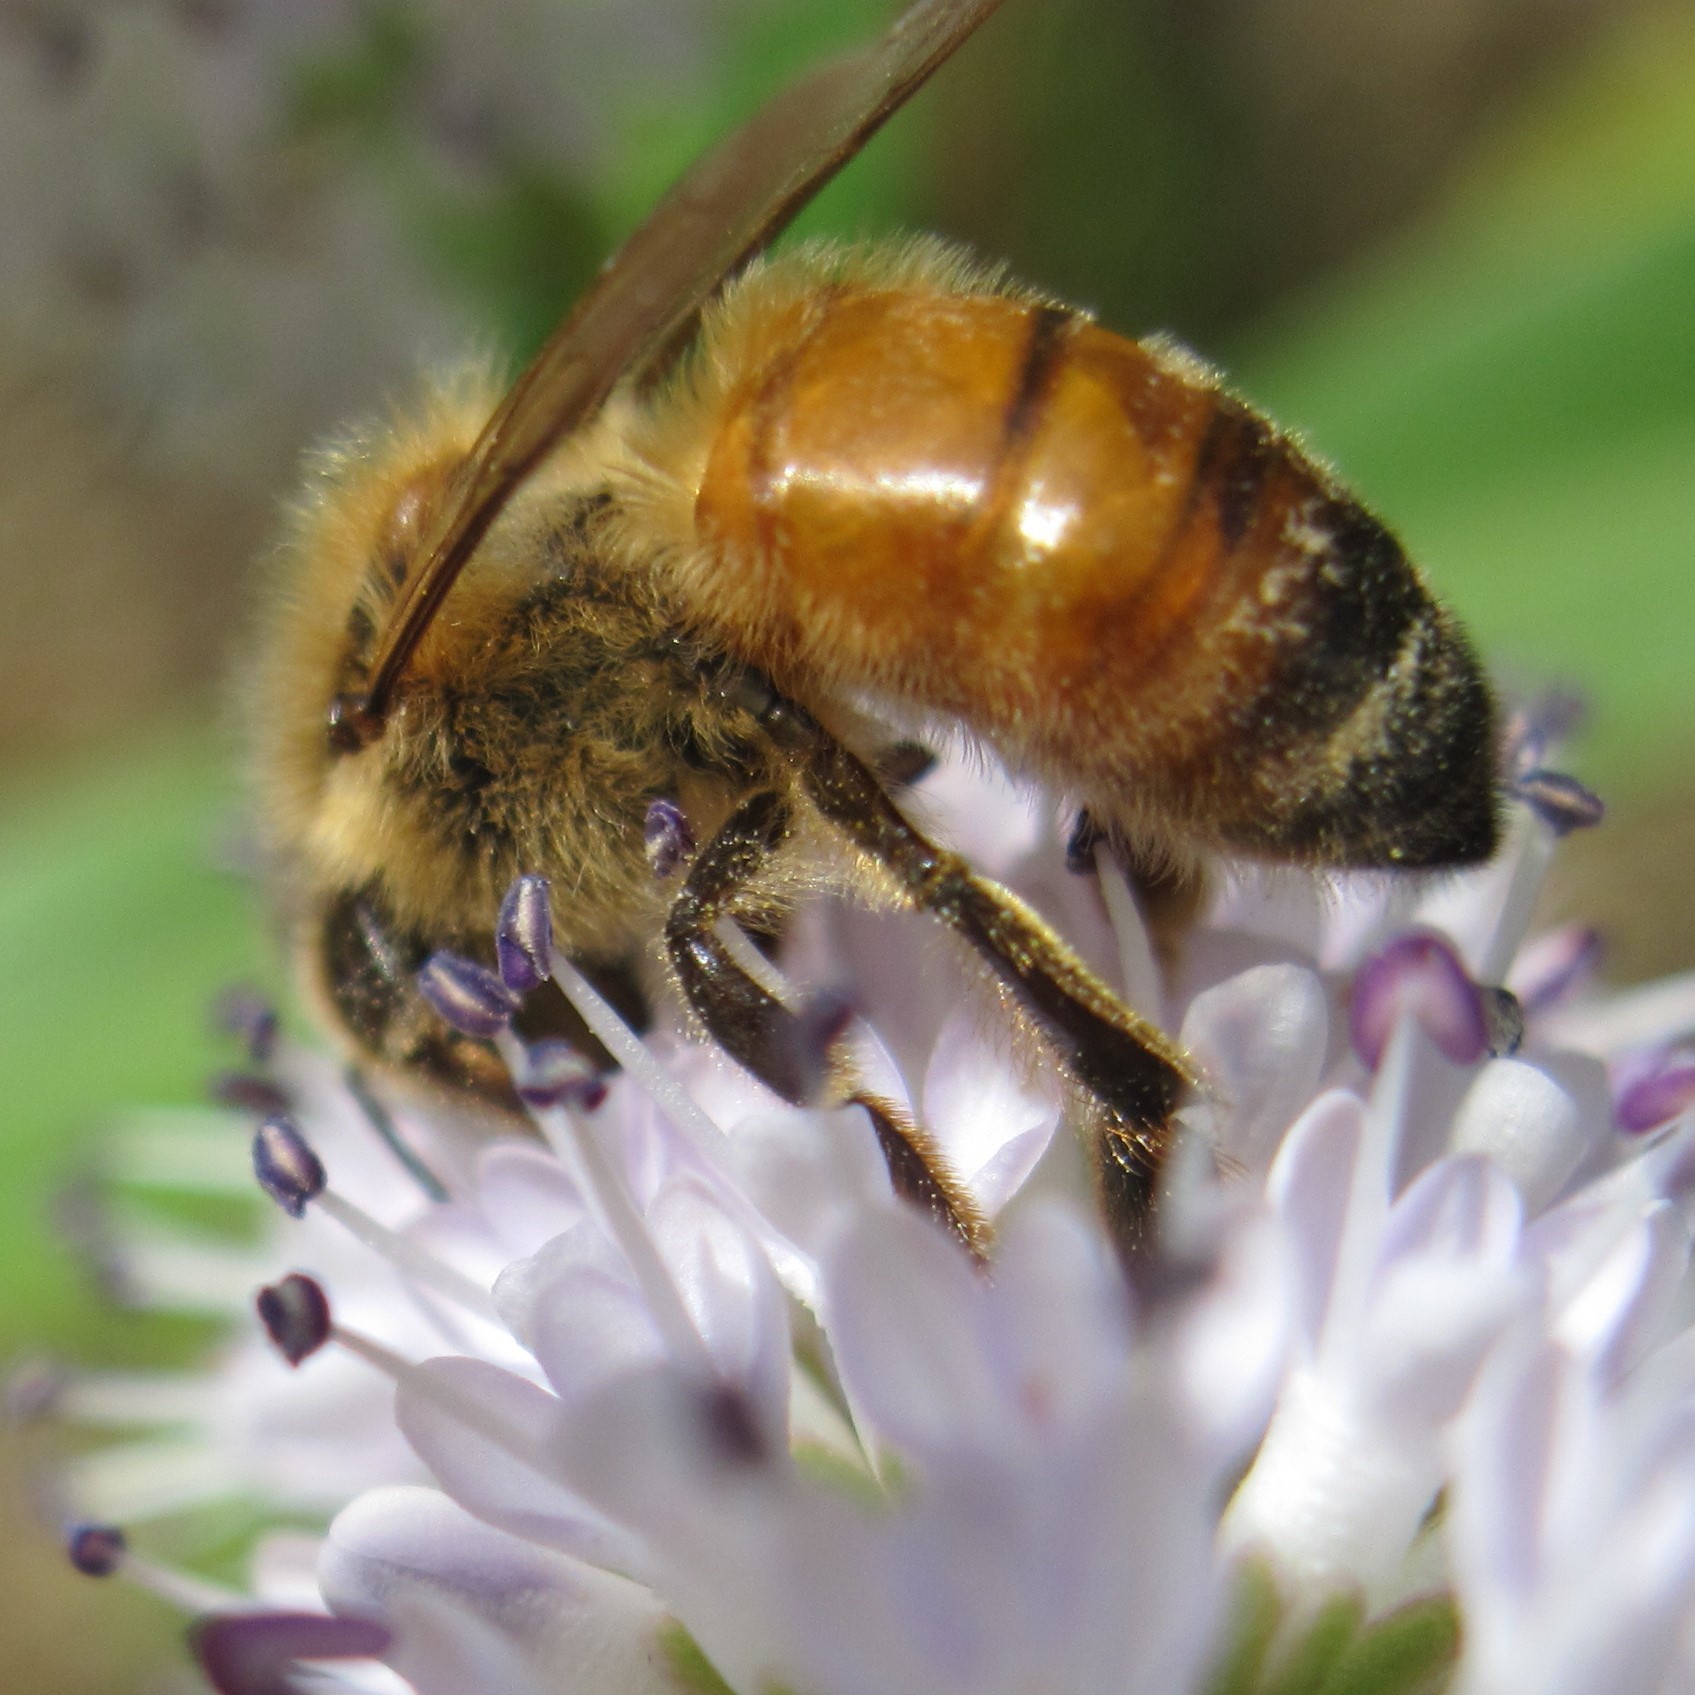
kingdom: Animalia
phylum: Arthropoda
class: Insecta
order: Hymenoptera
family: Apidae
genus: Apis
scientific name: Apis mellifera
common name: Honey bee
